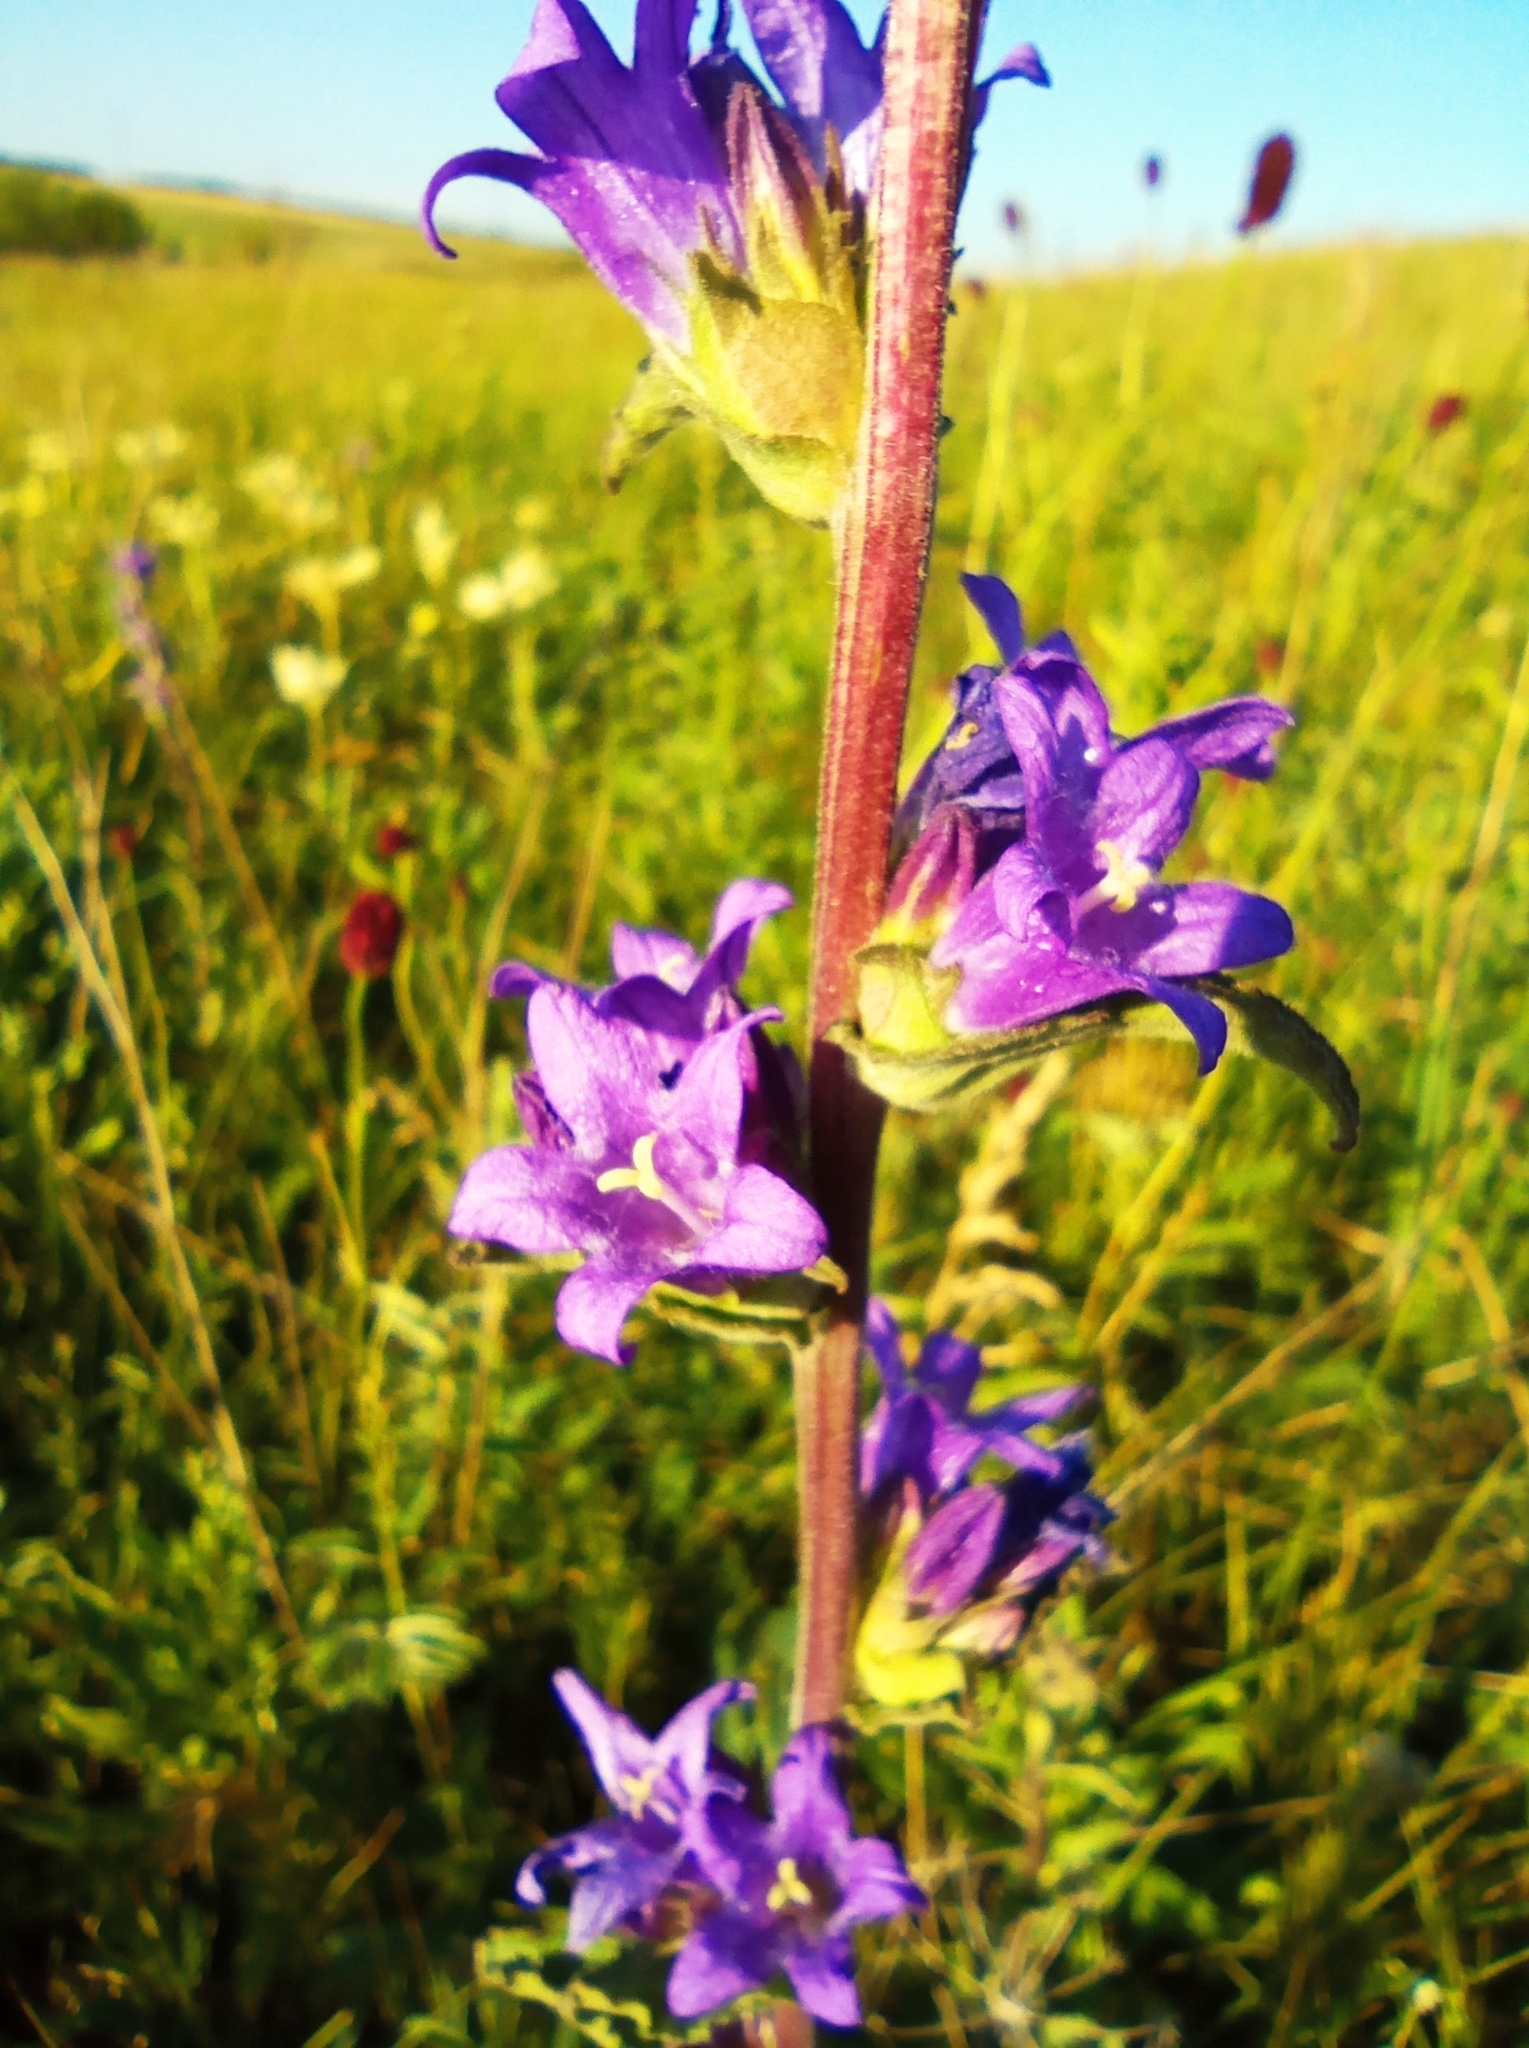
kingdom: Plantae
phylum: Tracheophyta
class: Magnoliopsida
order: Asterales
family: Campanulaceae
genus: Campanula
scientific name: Campanula glomerata
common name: Clustered bellflower
